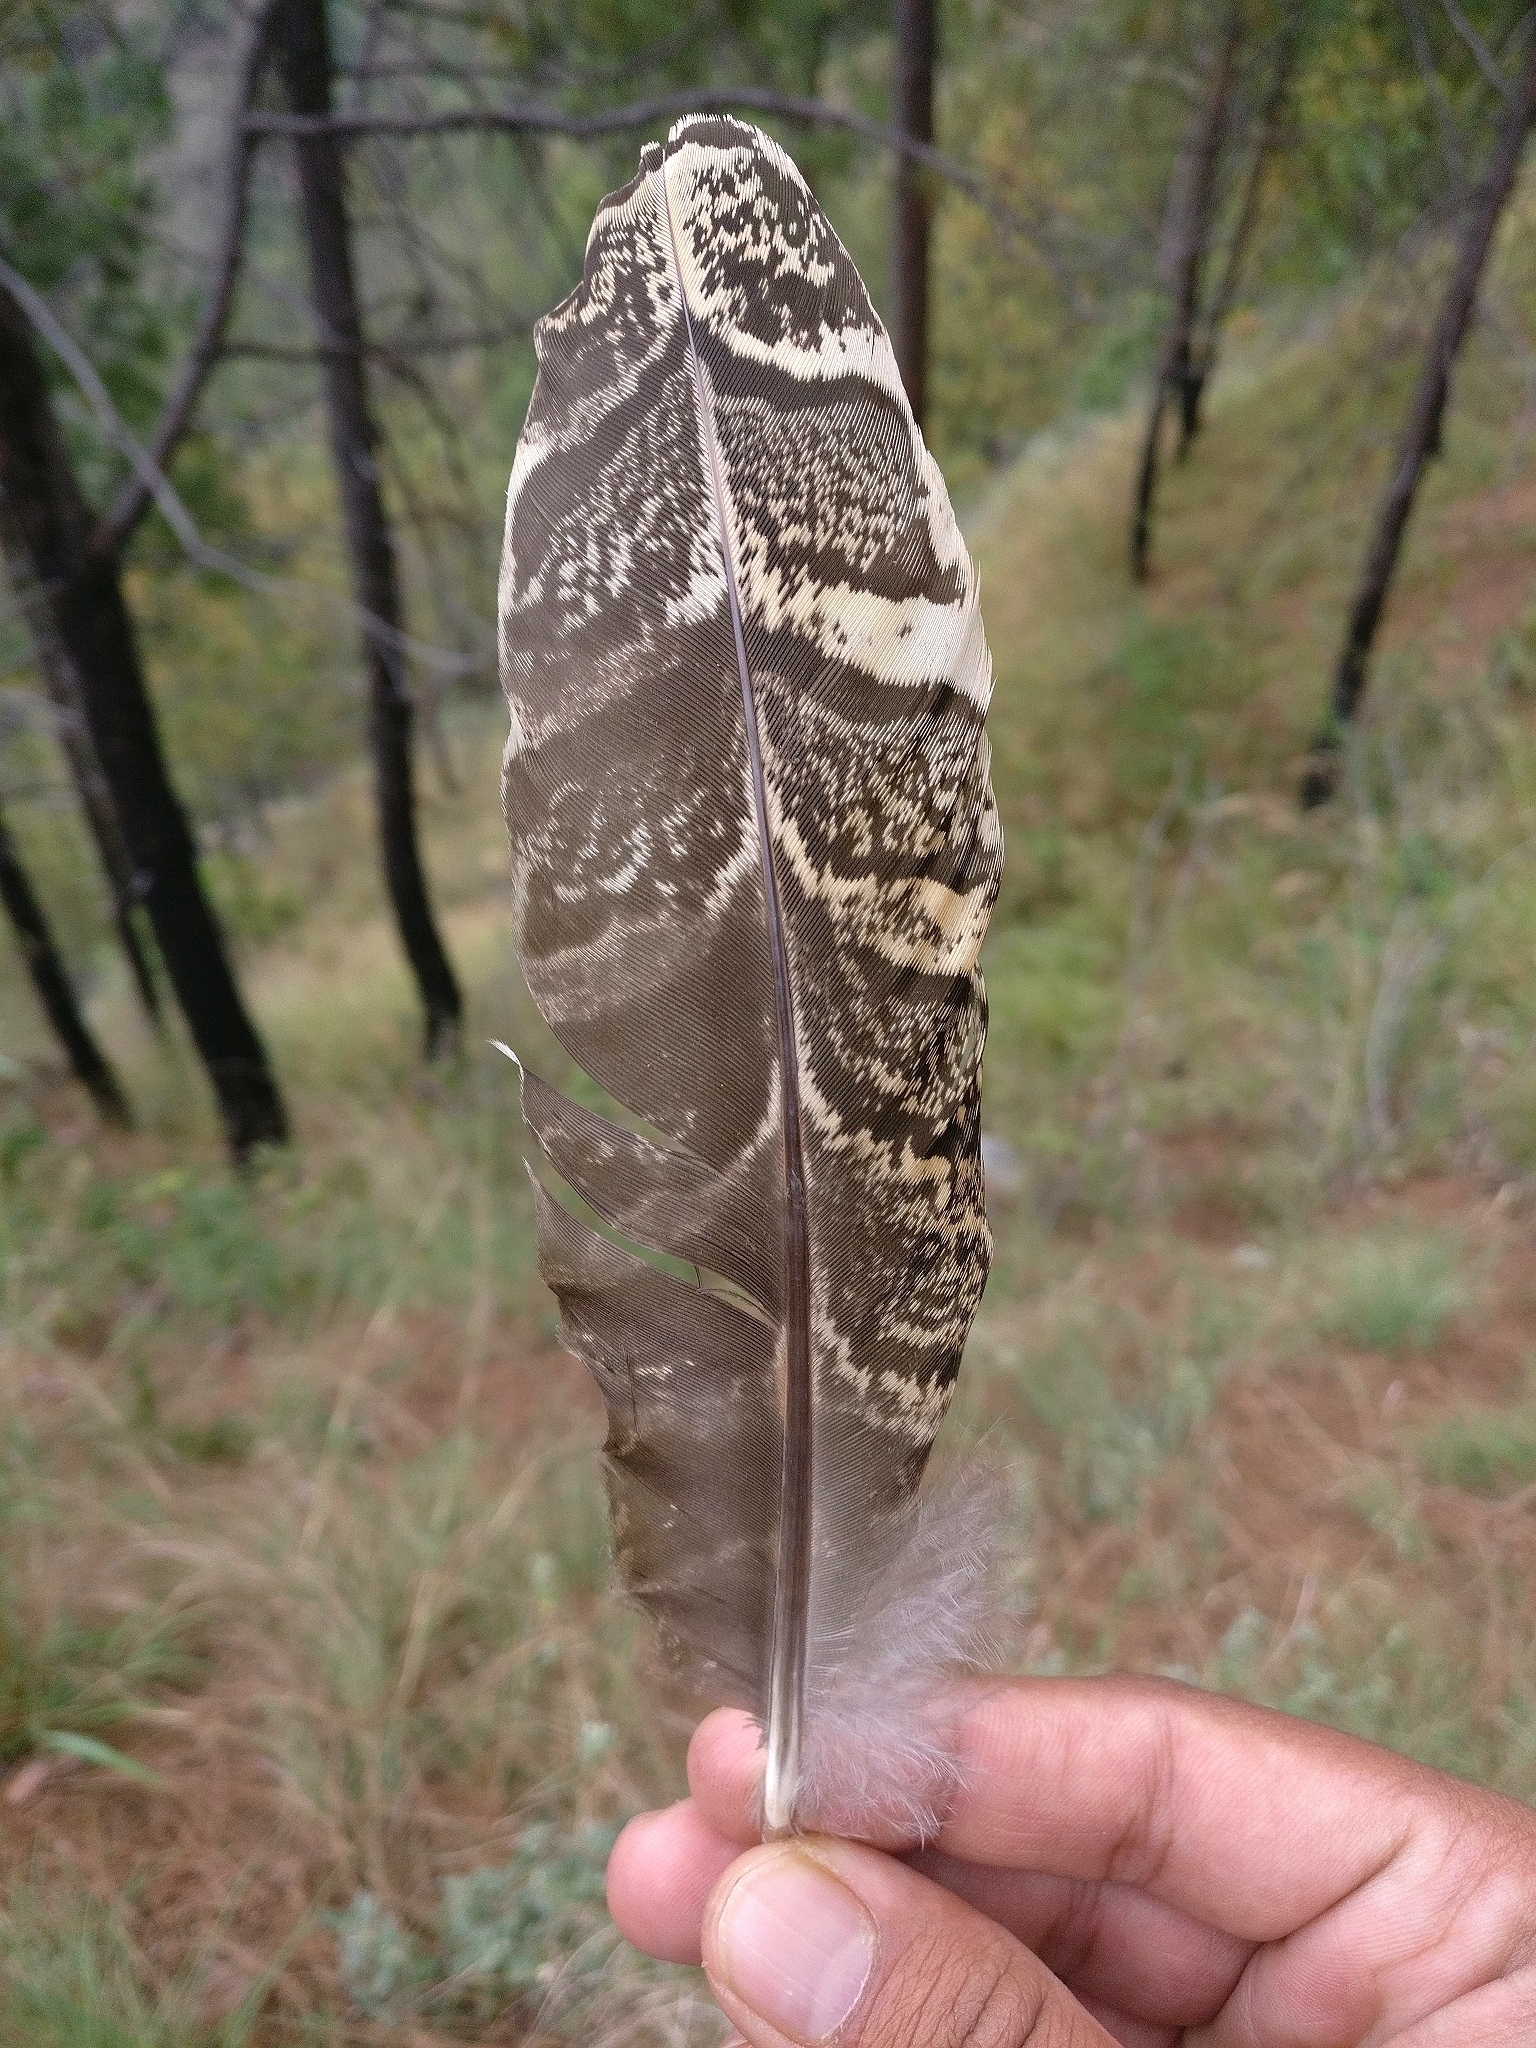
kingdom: Animalia
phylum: Chordata
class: Aves
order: Galliformes
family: Phasianidae
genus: Catreus
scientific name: Catreus wallichii
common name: Cheer pheasant
